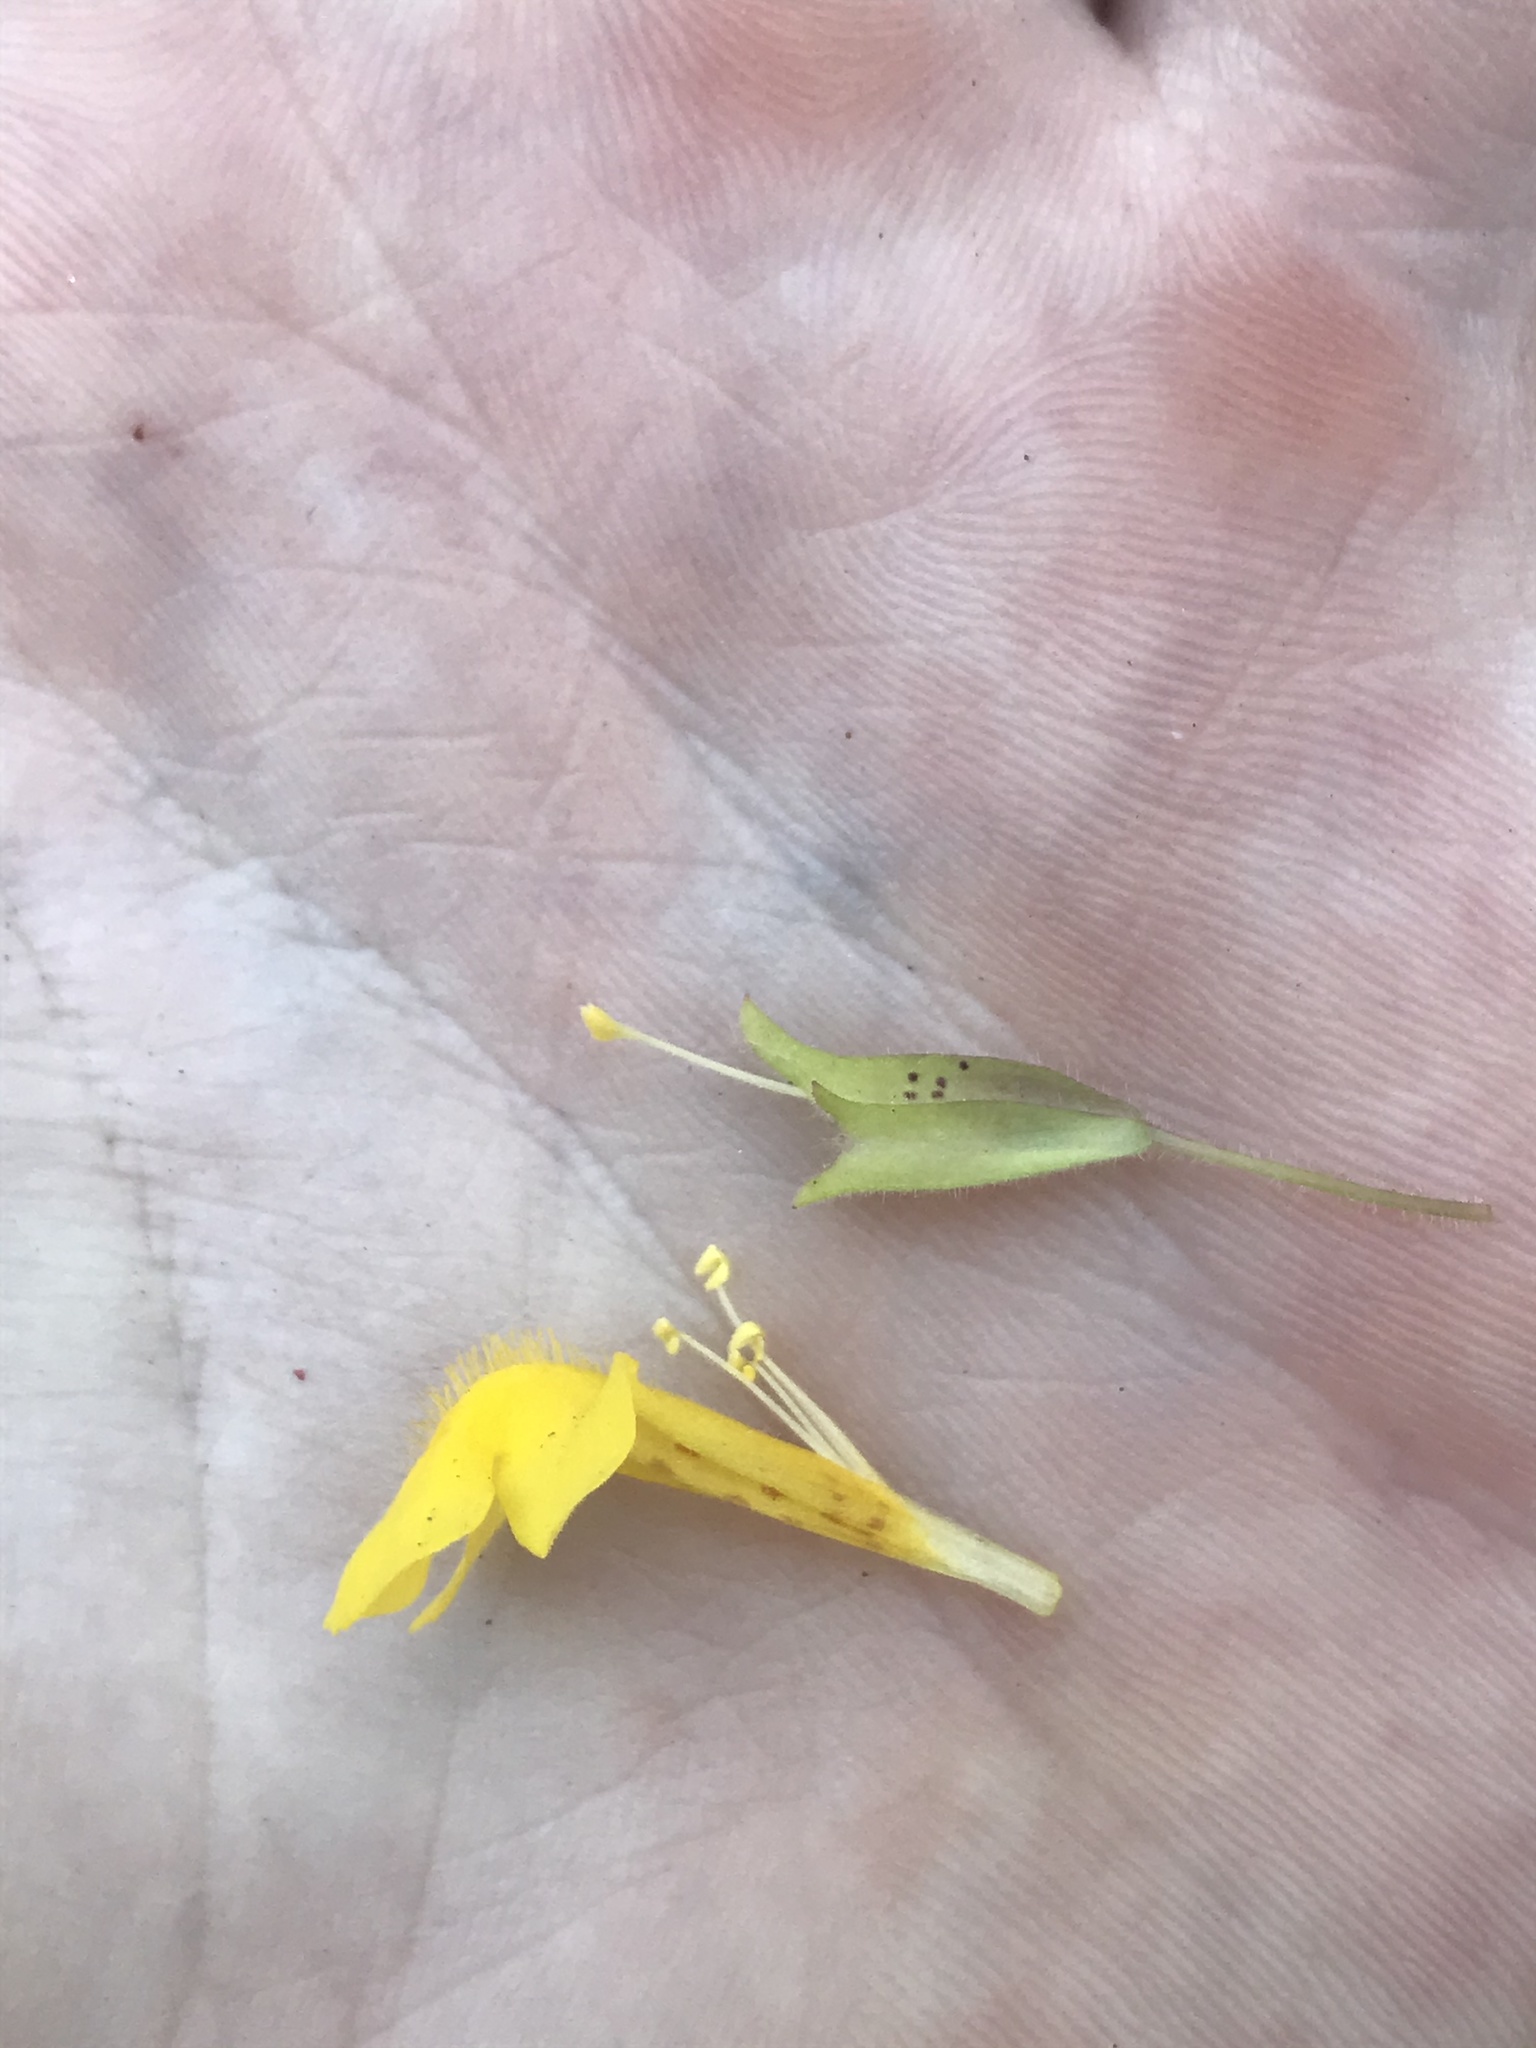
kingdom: Plantae
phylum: Tracheophyta
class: Magnoliopsida
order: Lamiales
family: Phrymaceae
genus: Erythranthe
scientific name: Erythranthe guttata
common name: Monkeyflower
